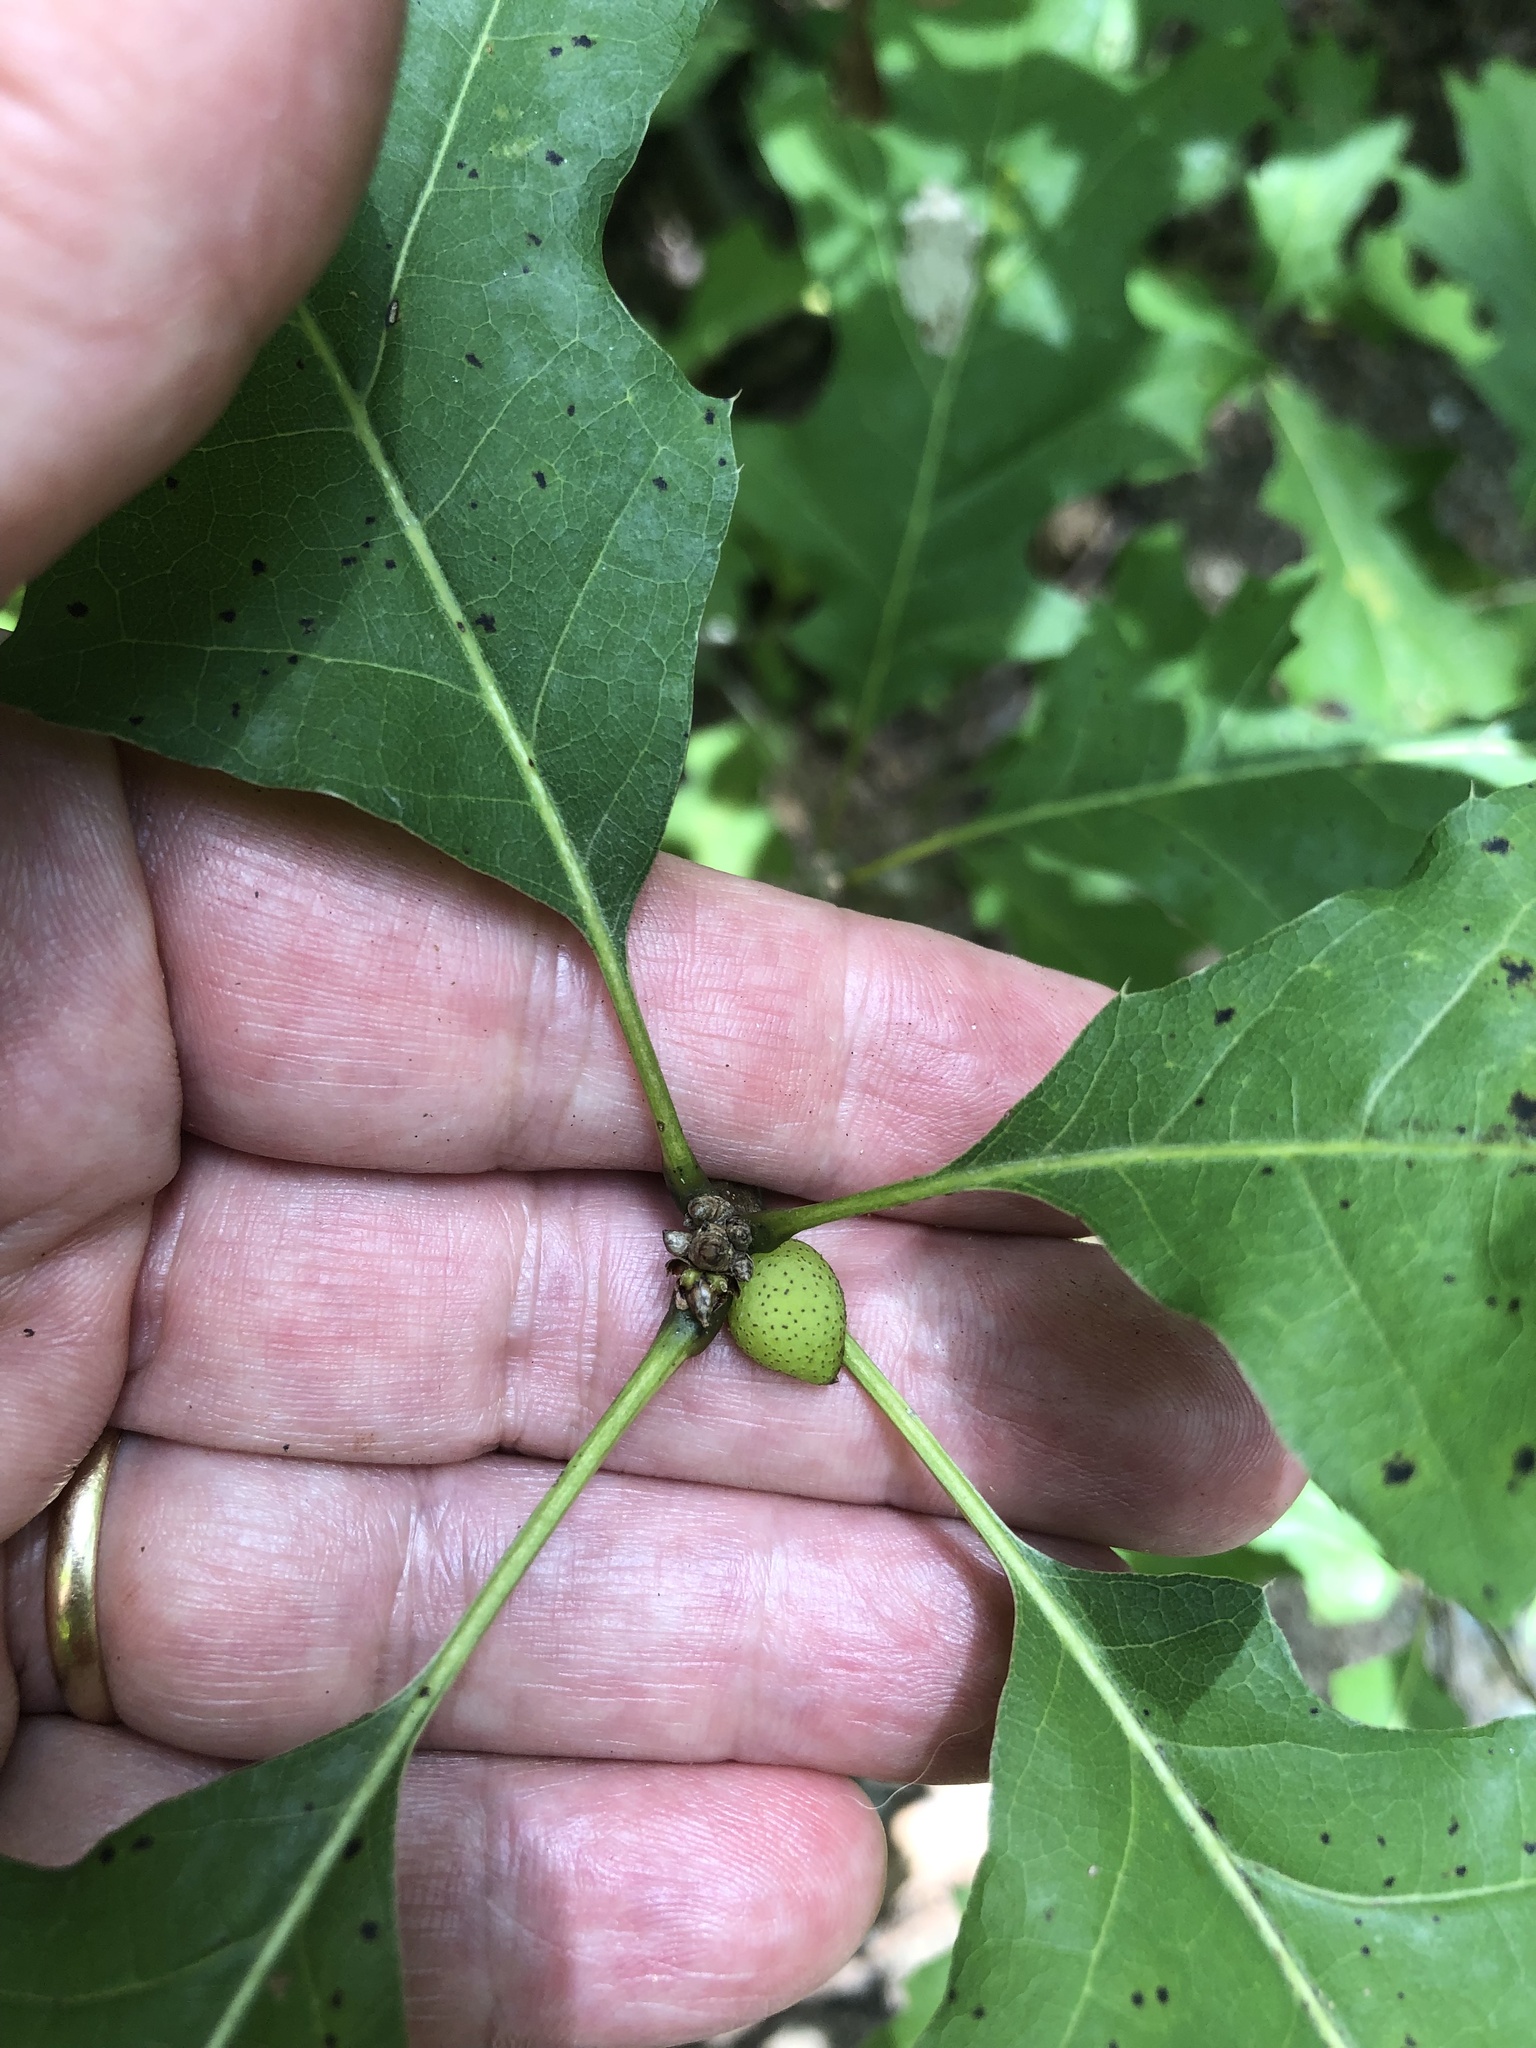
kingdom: Animalia
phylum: Arthropoda
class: Insecta
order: Hymenoptera
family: Cynipidae
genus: Amphibolips
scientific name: Amphibolips
